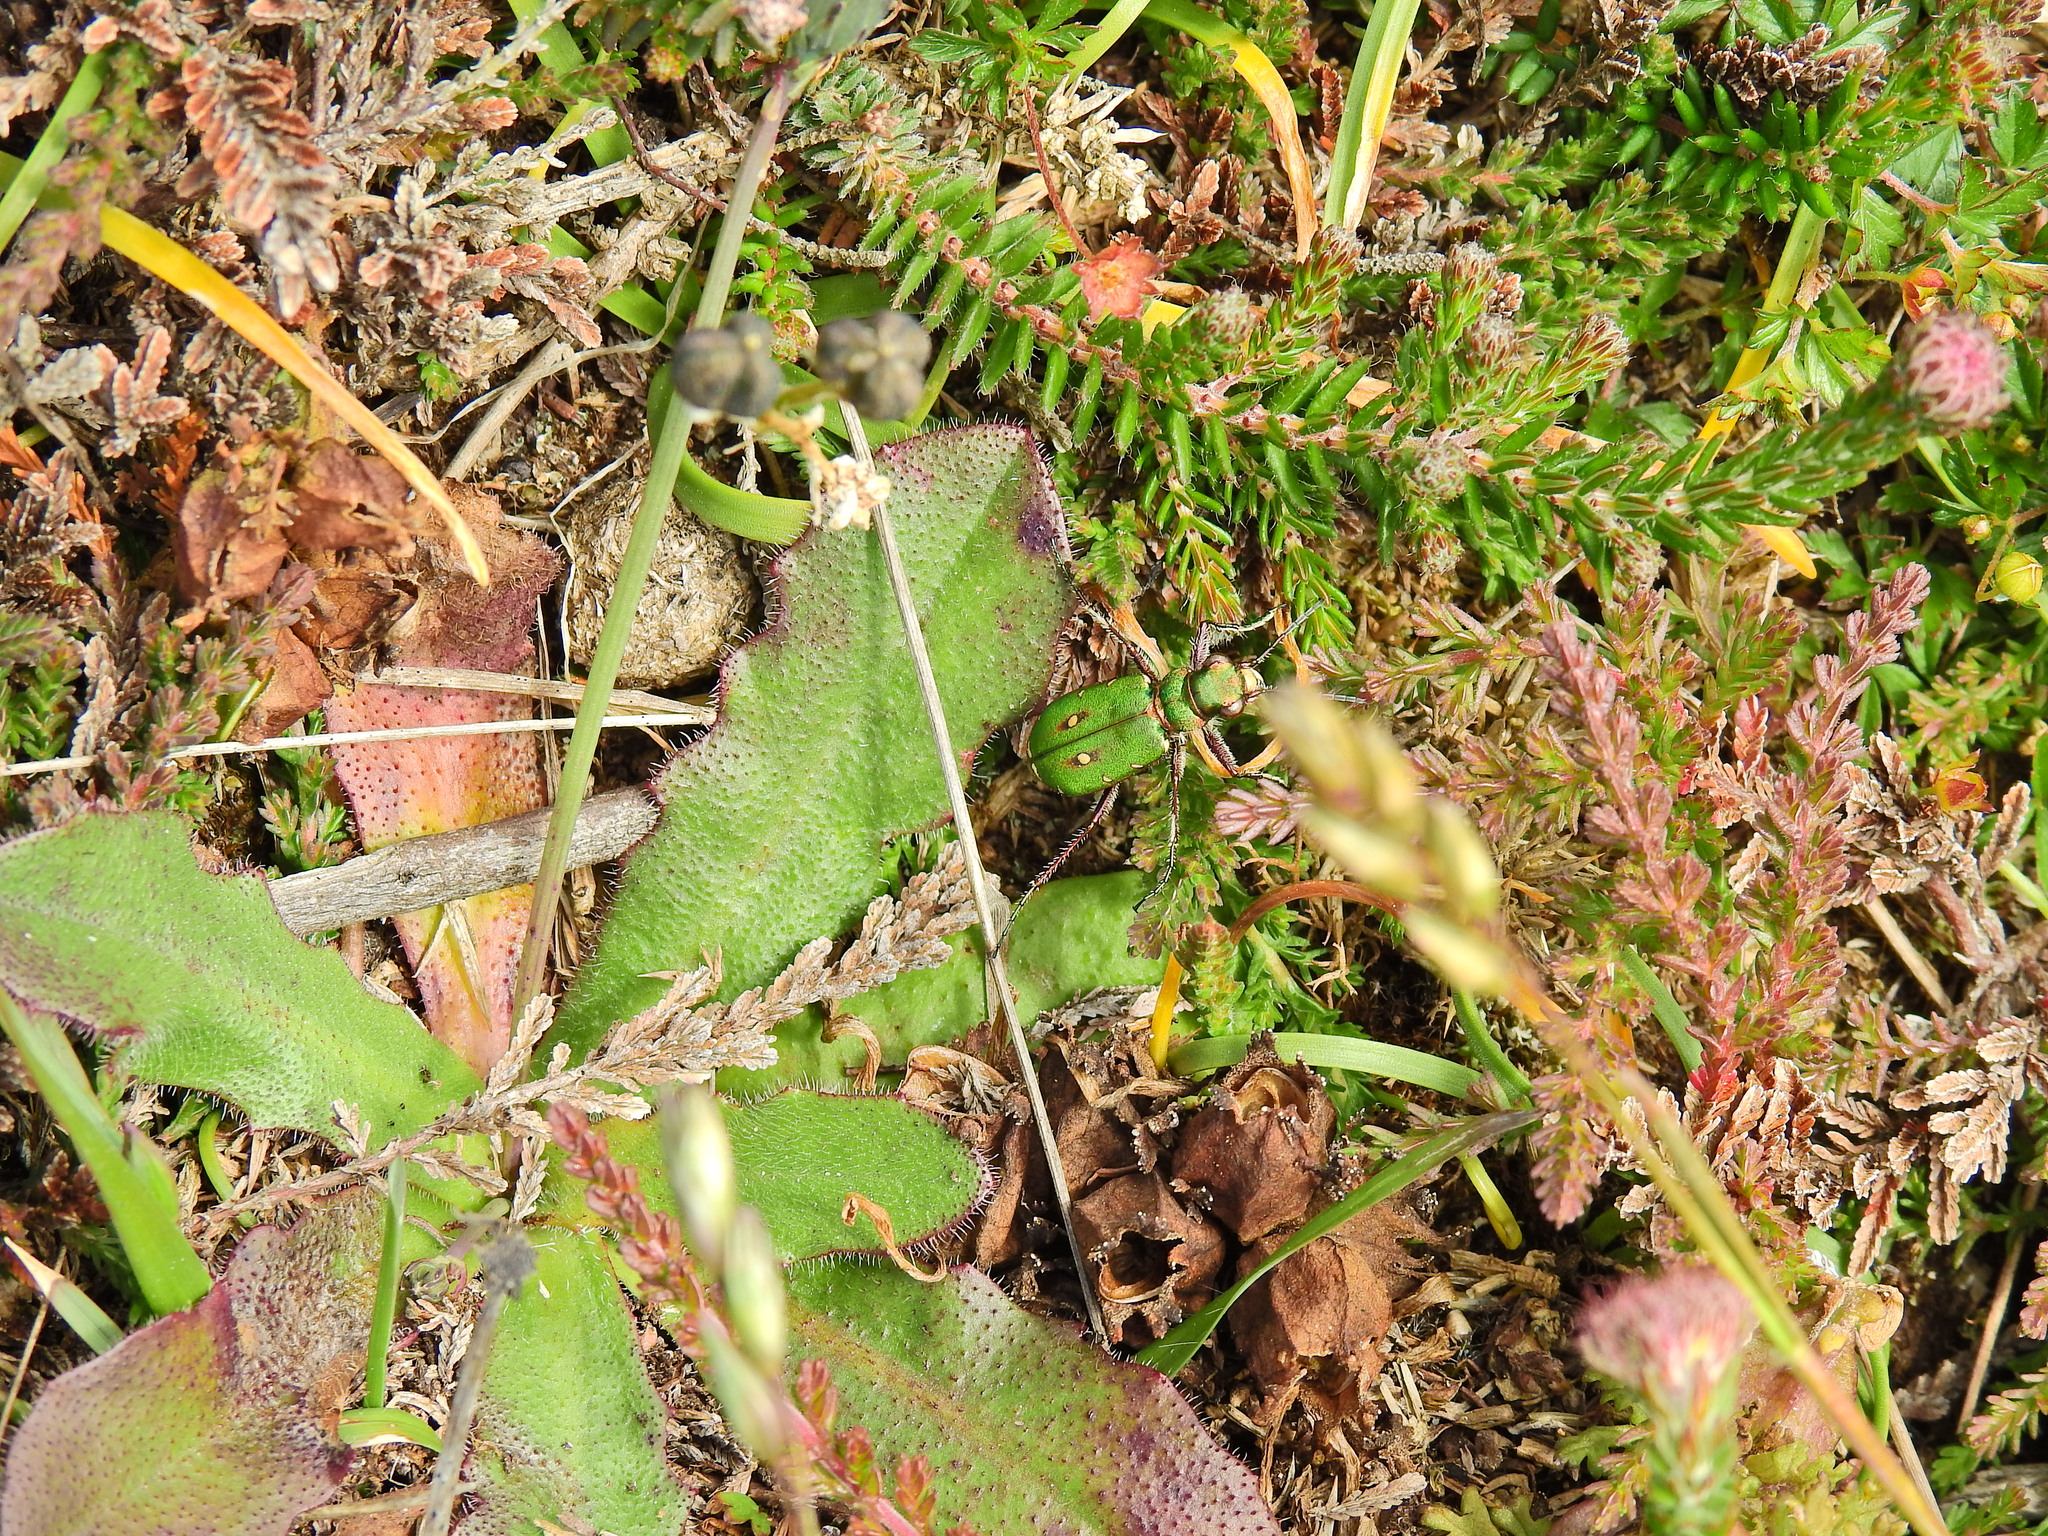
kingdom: Animalia
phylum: Arthropoda
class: Insecta
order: Coleoptera
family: Carabidae
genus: Cicindela
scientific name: Cicindela campestris
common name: Common tiger beetle
